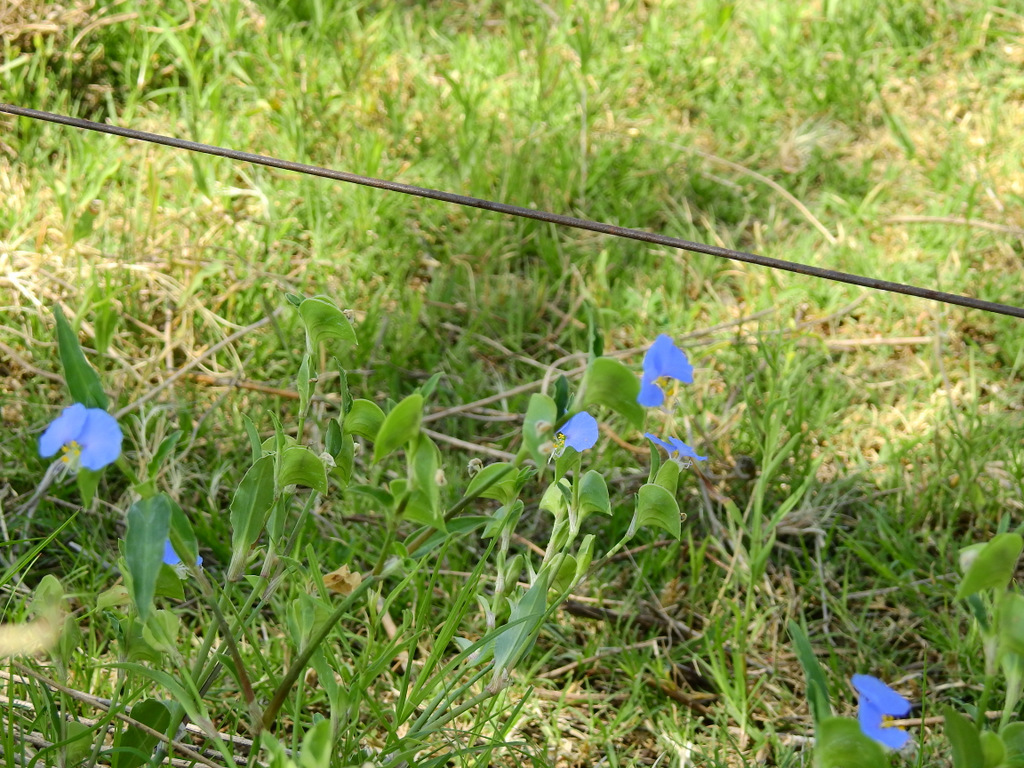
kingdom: Plantae
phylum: Tracheophyta
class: Liliopsida
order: Commelinales
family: Commelinaceae
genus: Commelina
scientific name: Commelina erecta
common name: Blousel blommetjie
